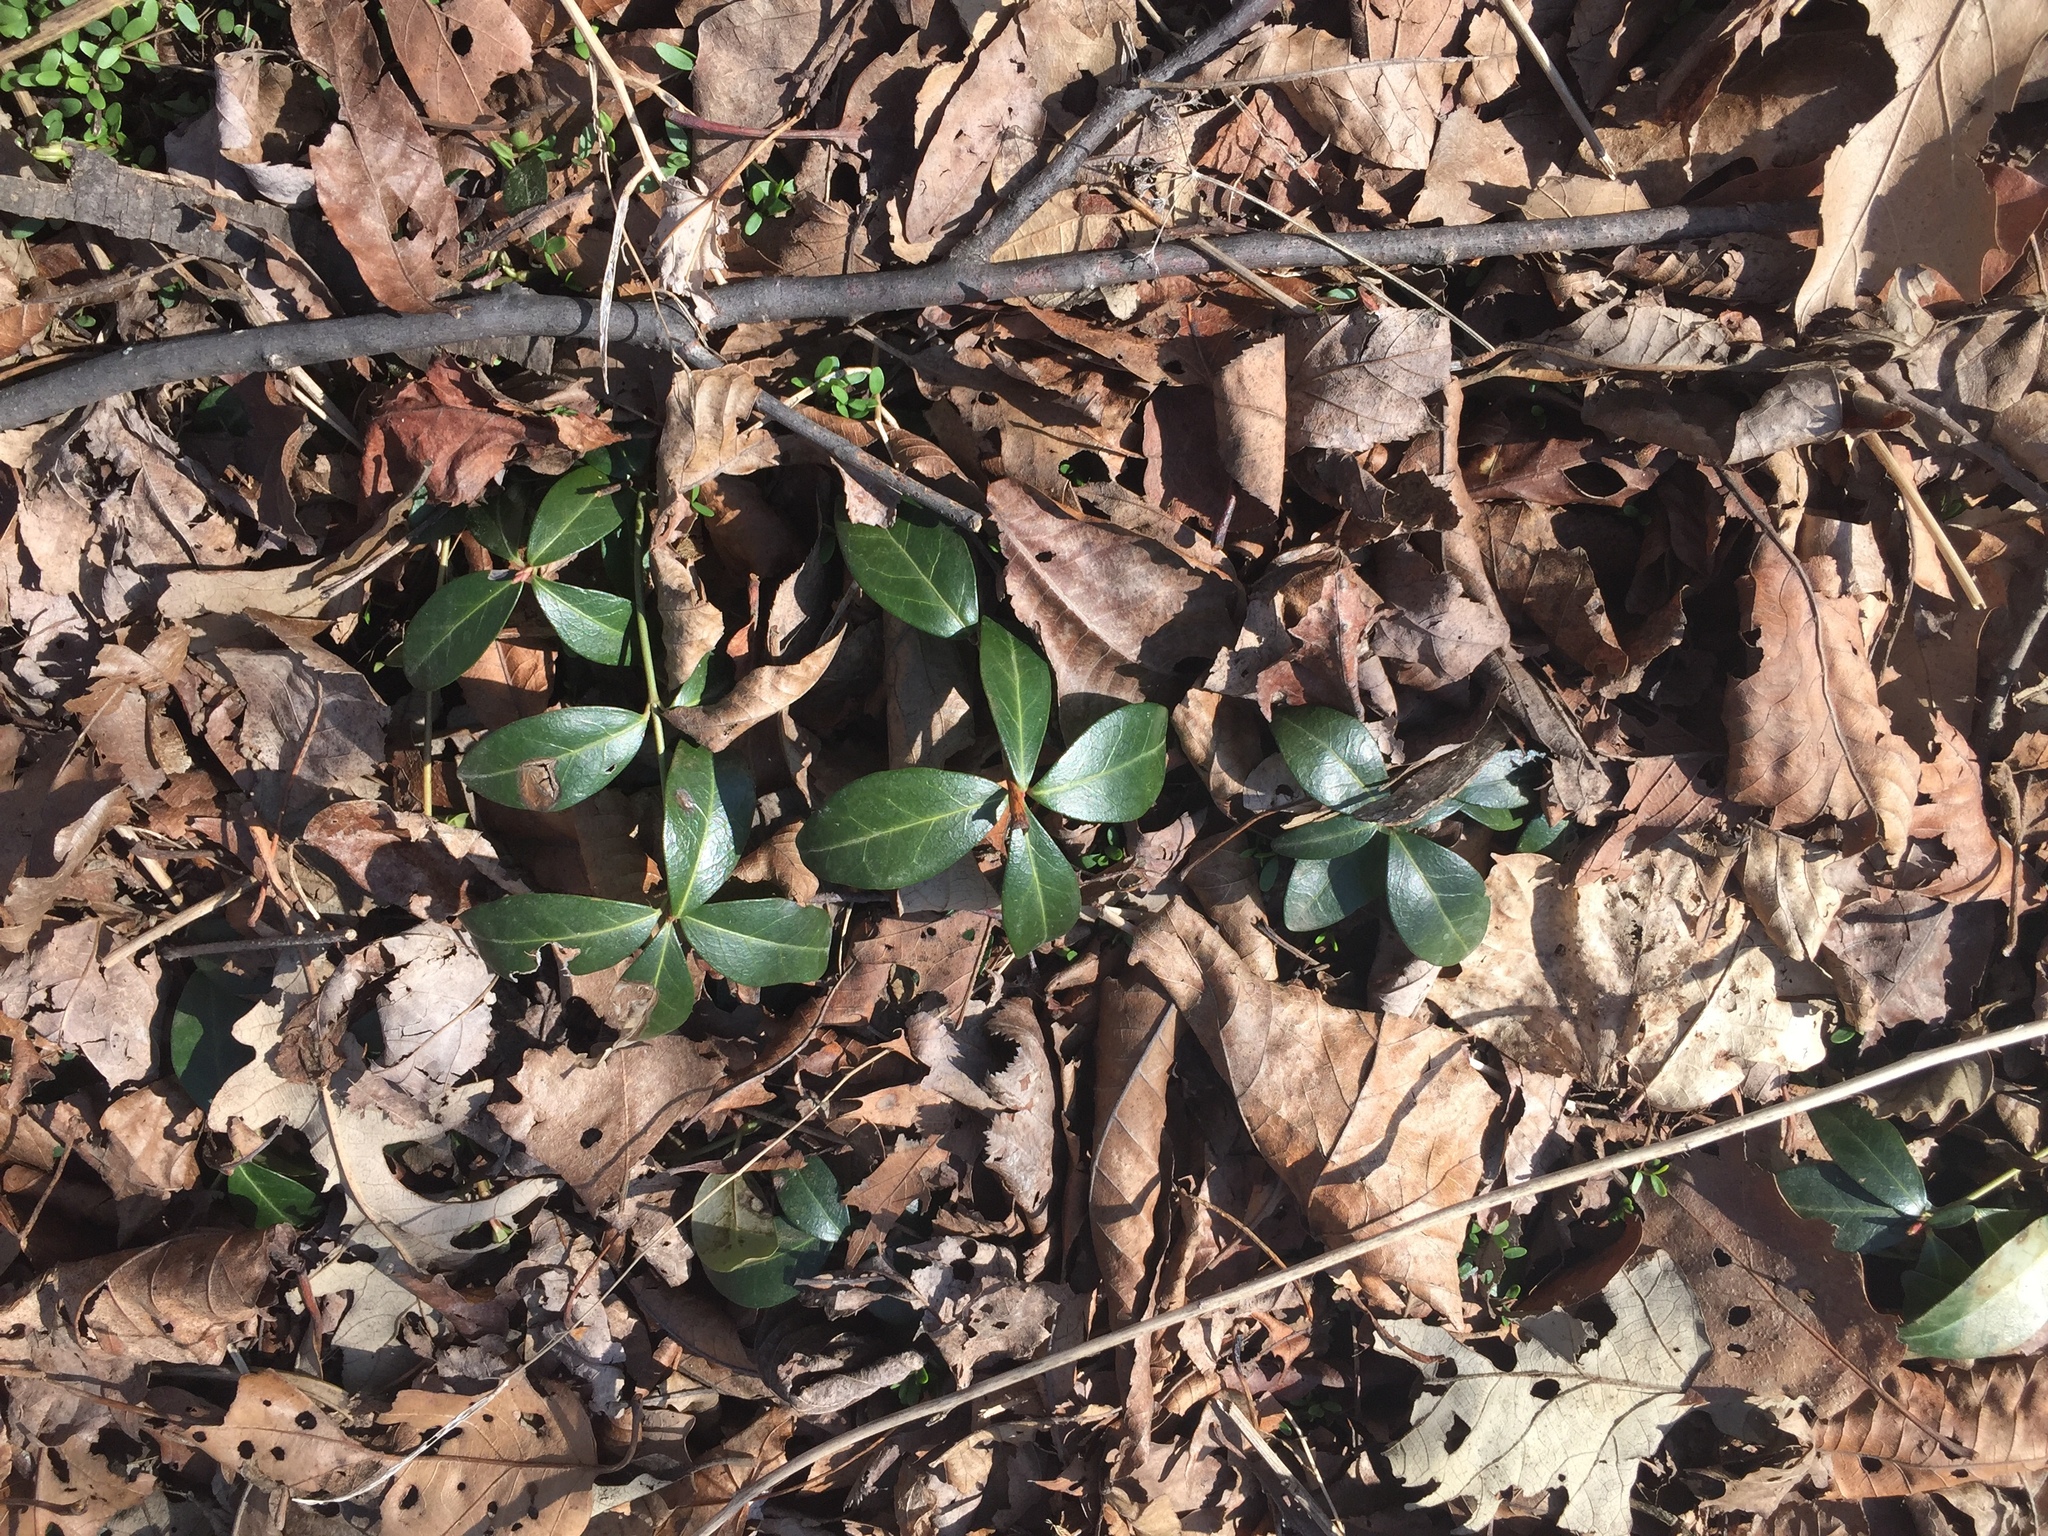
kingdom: Plantae
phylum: Tracheophyta
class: Magnoliopsida
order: Gentianales
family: Apocynaceae
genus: Vinca
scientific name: Vinca minor
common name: Lesser periwinkle
